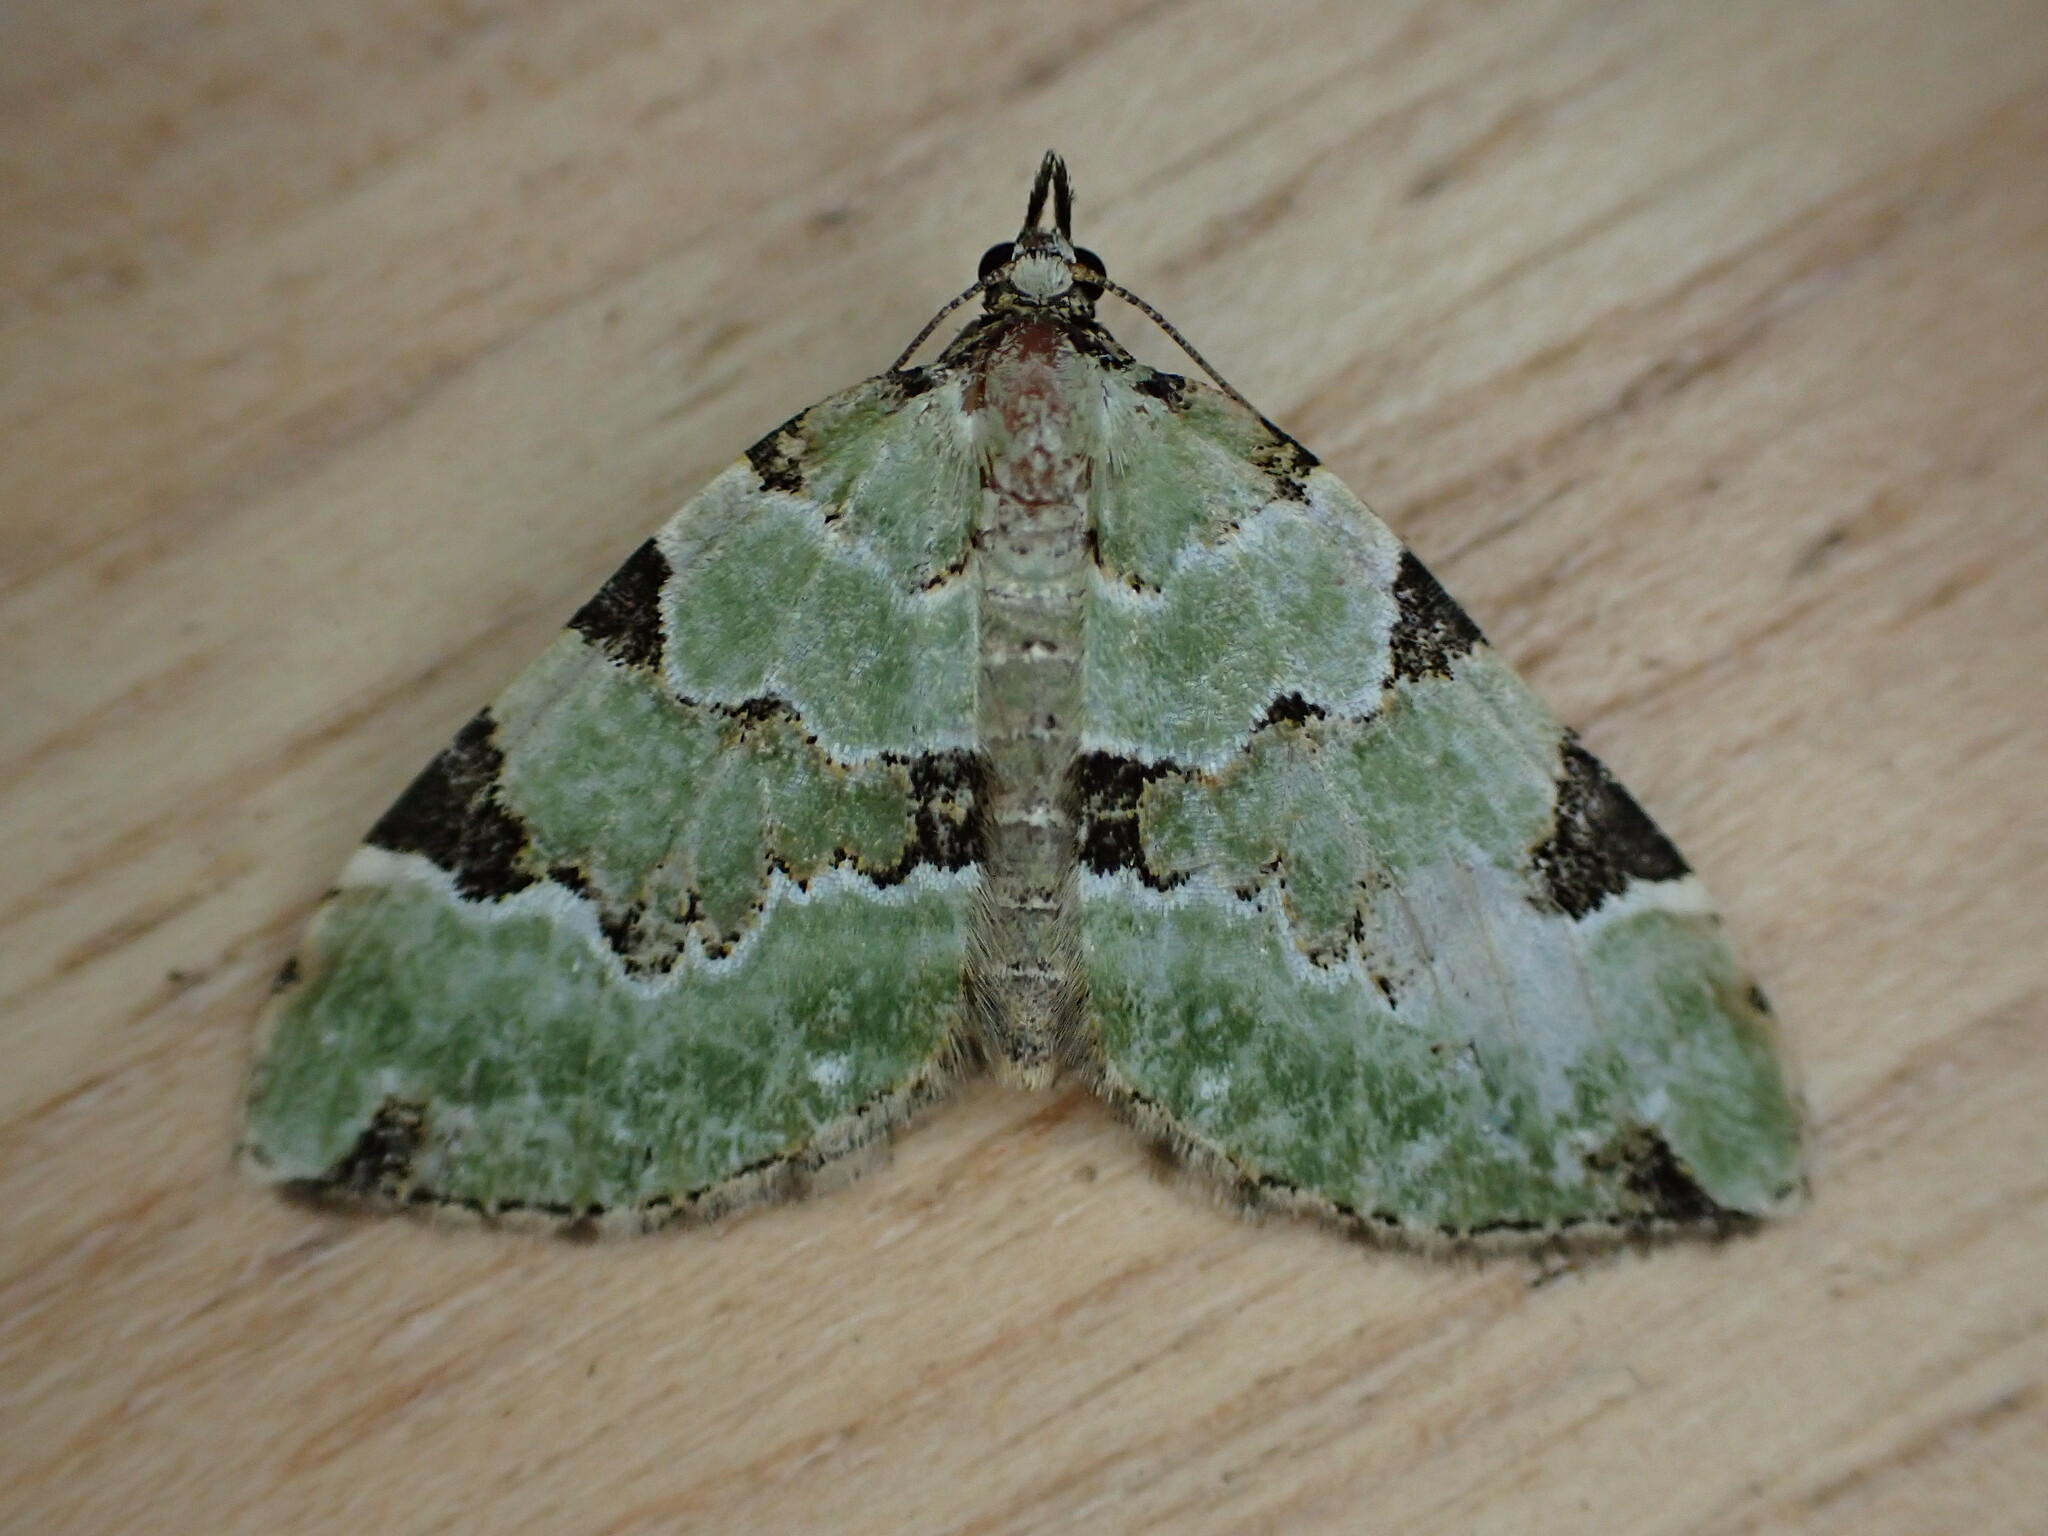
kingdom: Animalia
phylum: Arthropoda
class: Insecta
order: Lepidoptera
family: Geometridae
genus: Colostygia
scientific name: Colostygia pectinataria
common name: Green carpet
